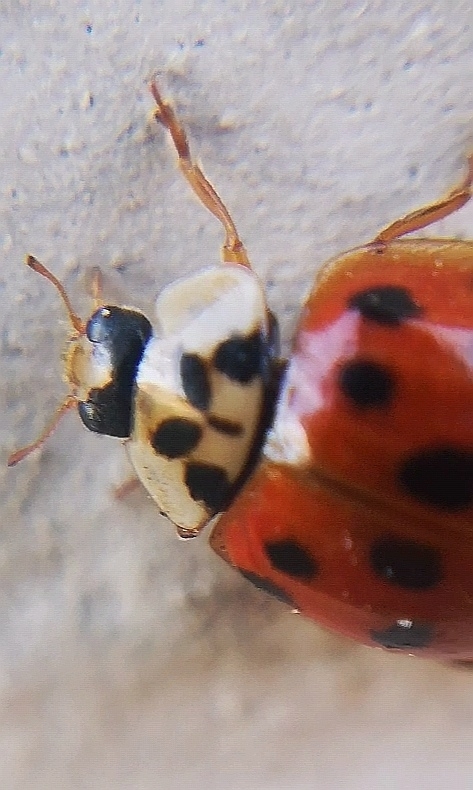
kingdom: Animalia
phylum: Arthropoda
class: Insecta
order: Coleoptera
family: Coccinellidae
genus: Harmonia
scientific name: Harmonia axyridis
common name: Harlequin ladybird
